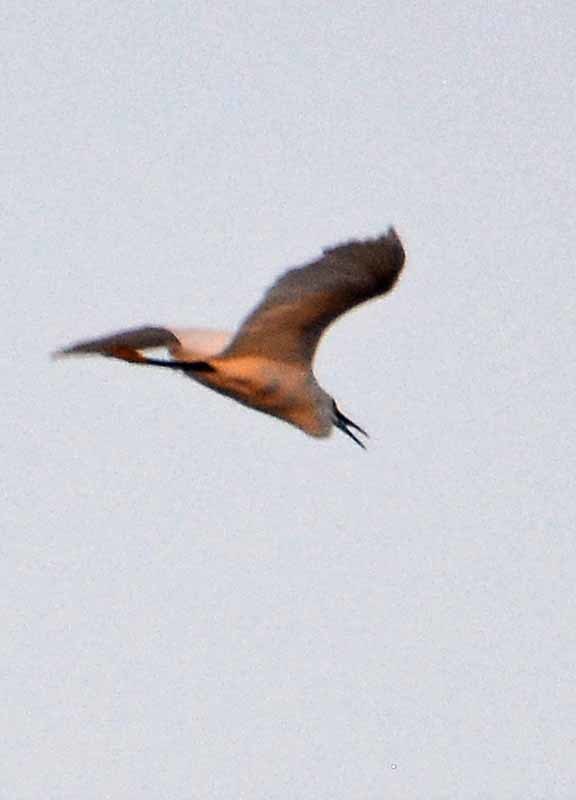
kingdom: Animalia
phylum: Chordata
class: Aves
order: Pelecaniformes
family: Ardeidae
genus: Egretta
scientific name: Egretta thula
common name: Snowy egret
